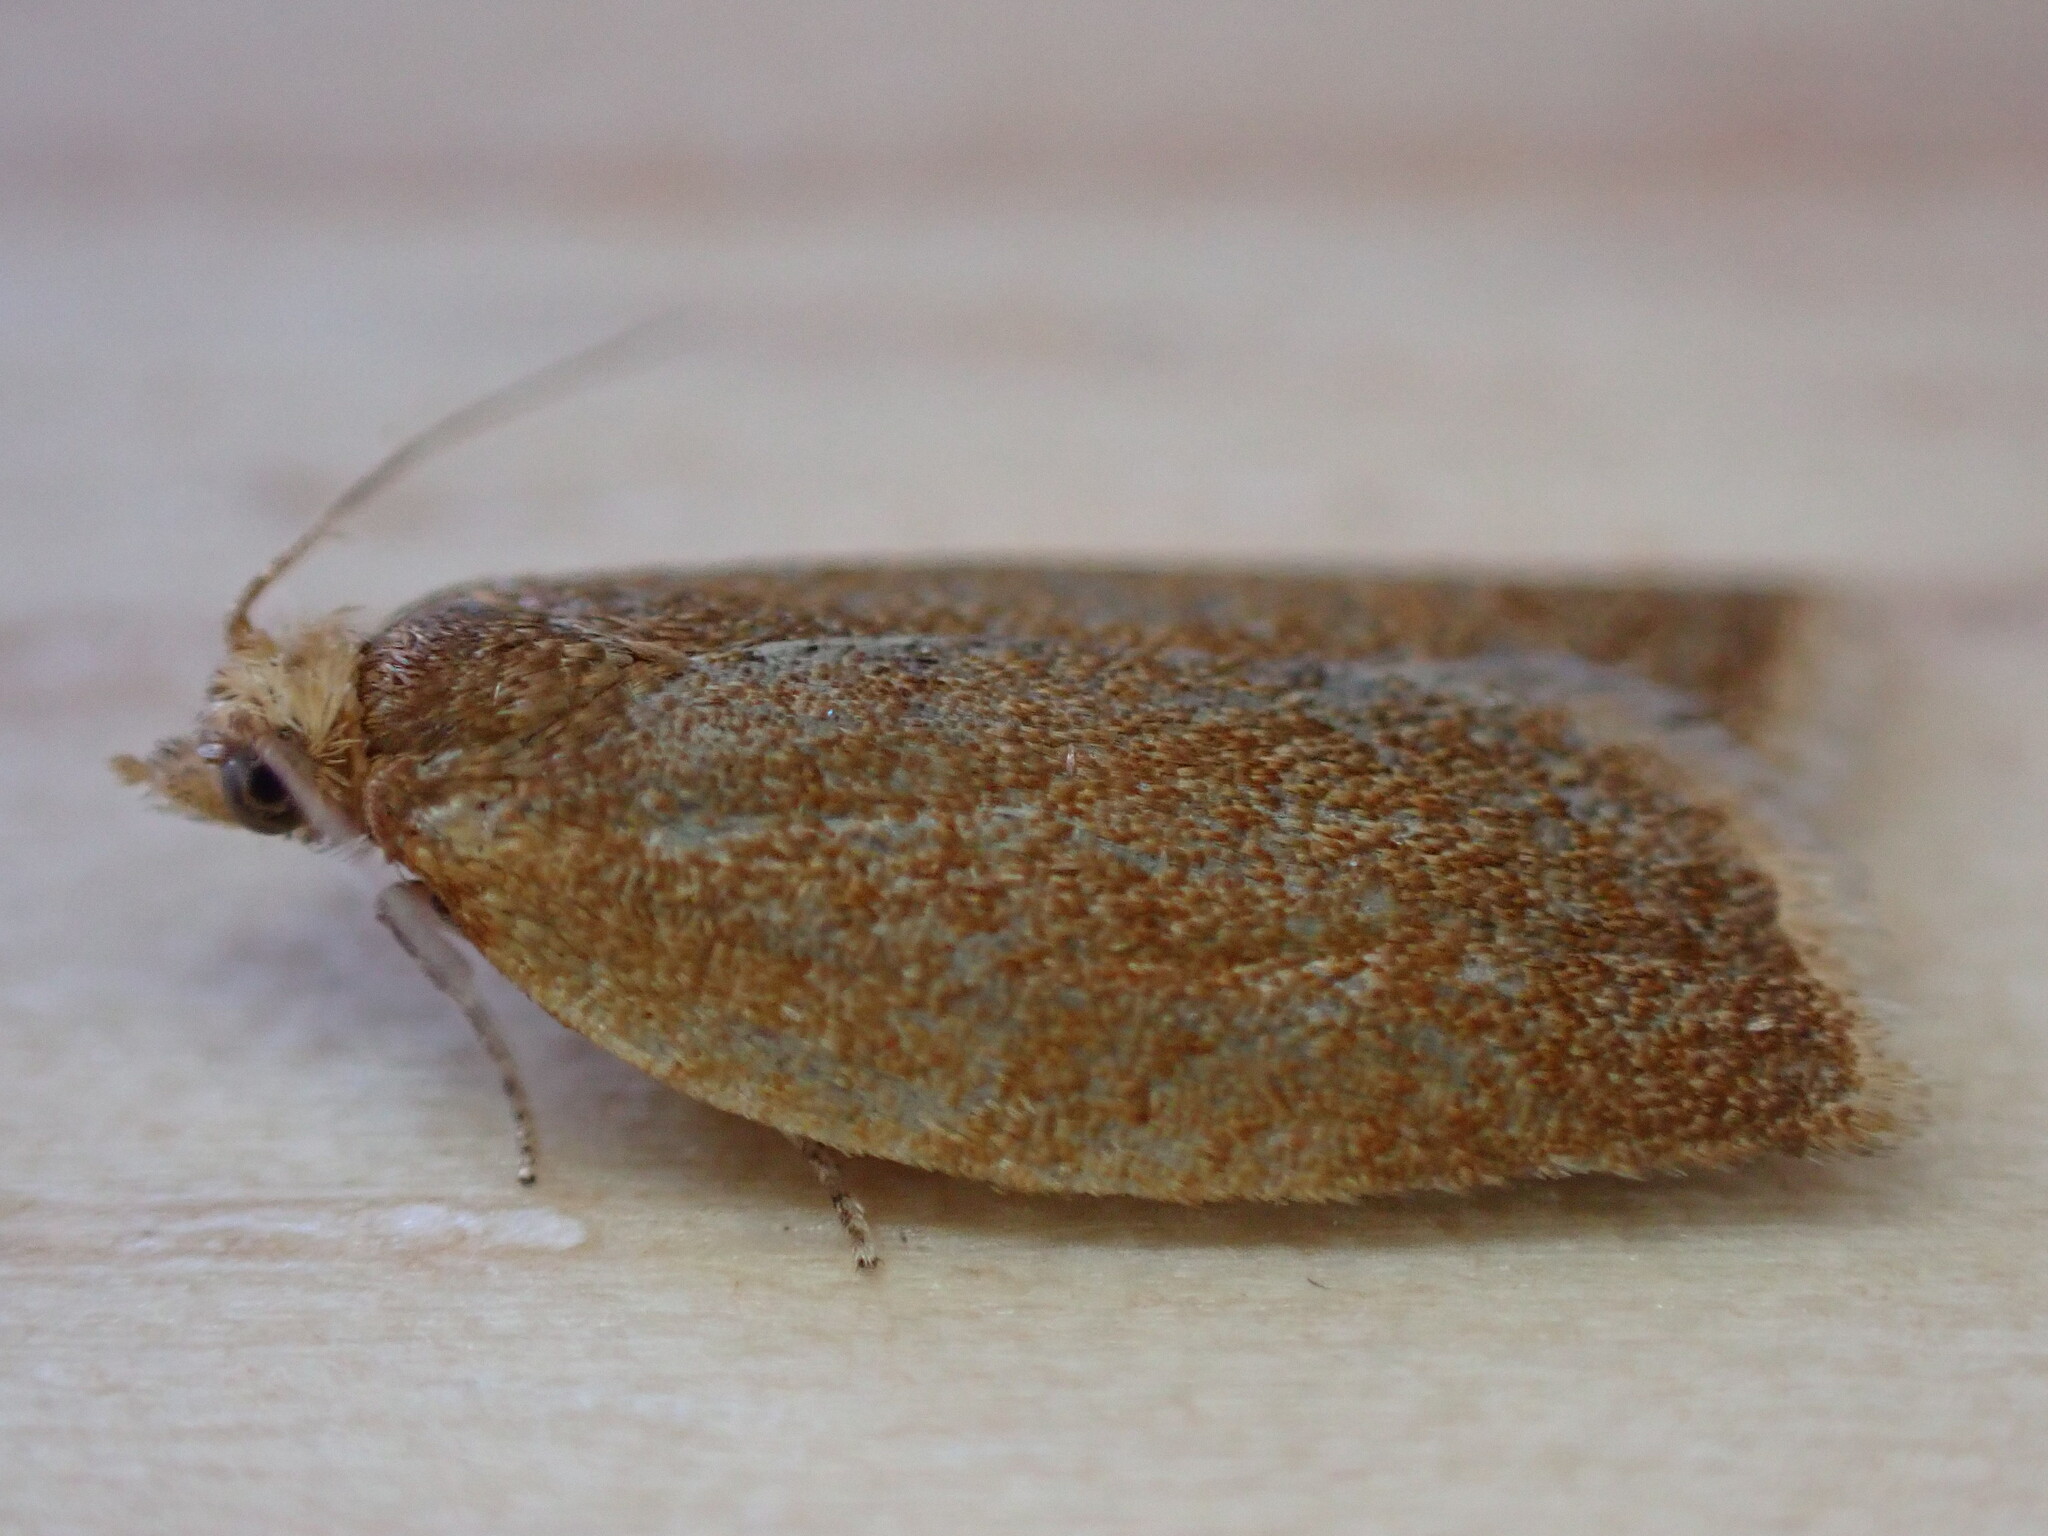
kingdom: Animalia
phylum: Arthropoda
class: Insecta
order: Lepidoptera
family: Tortricidae
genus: Clepsis
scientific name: Clepsis consimilana
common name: Privet tortrix
